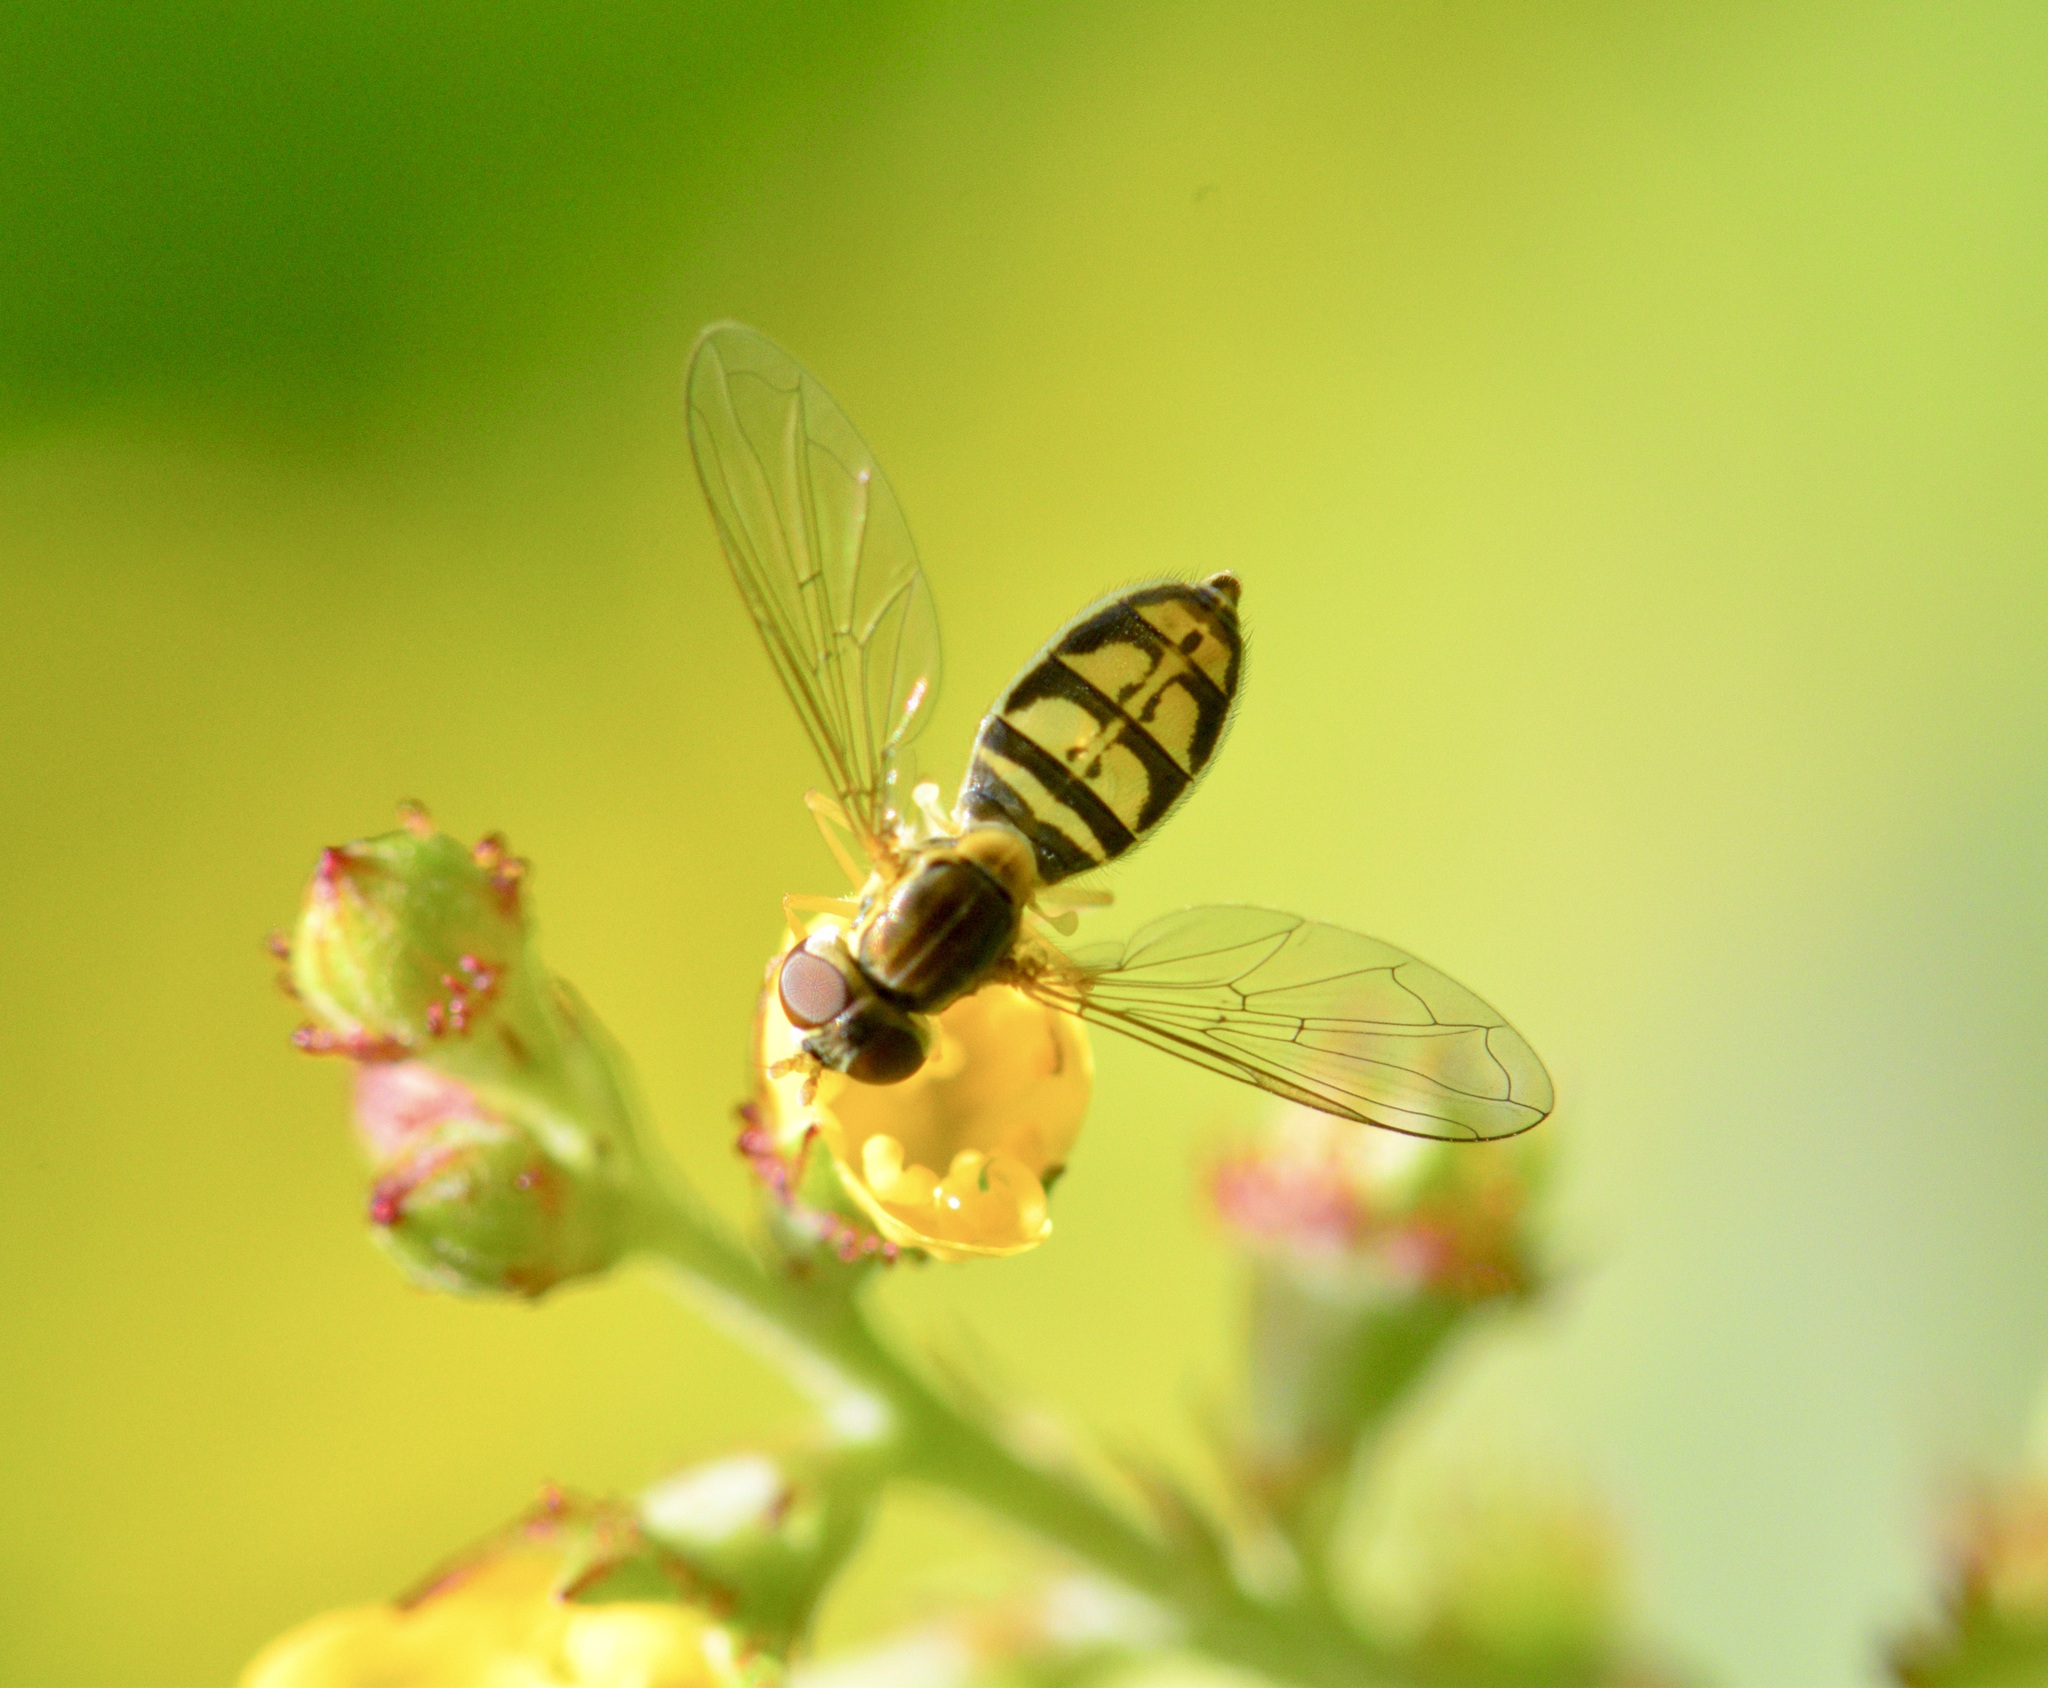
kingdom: Animalia
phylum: Arthropoda
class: Insecta
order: Diptera
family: Syrphidae
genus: Toxomerus
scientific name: Toxomerus marginatus
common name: Syrphid fly
